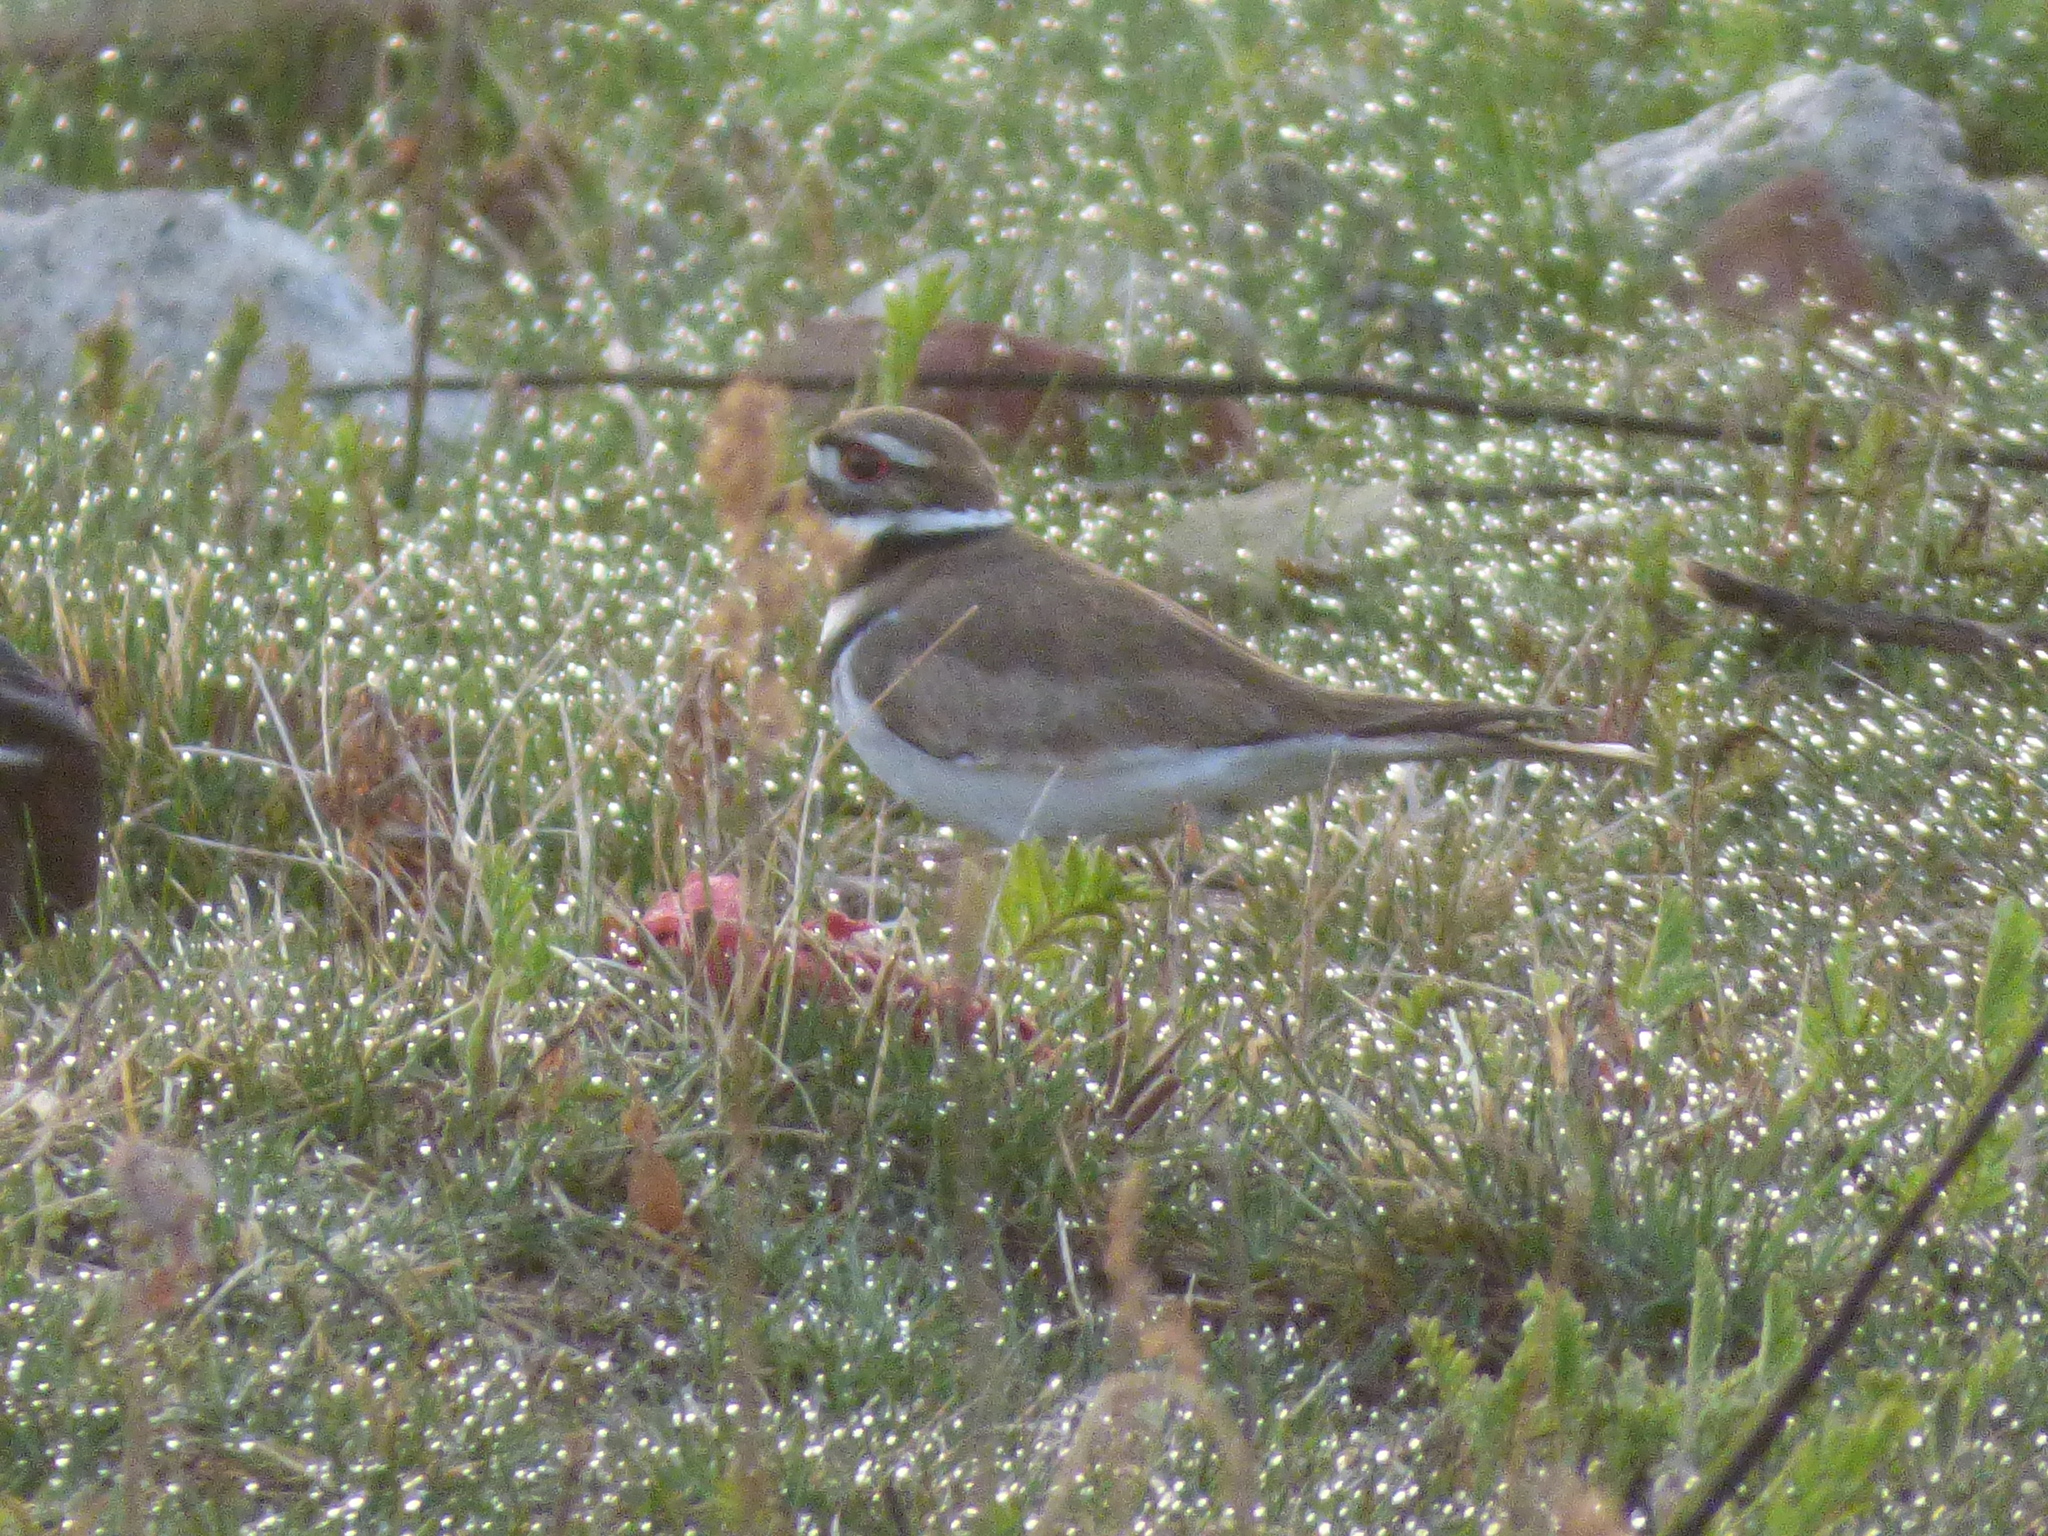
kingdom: Animalia
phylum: Chordata
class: Aves
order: Charadriiformes
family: Charadriidae
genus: Charadrius
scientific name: Charadrius vociferus
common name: Killdeer
